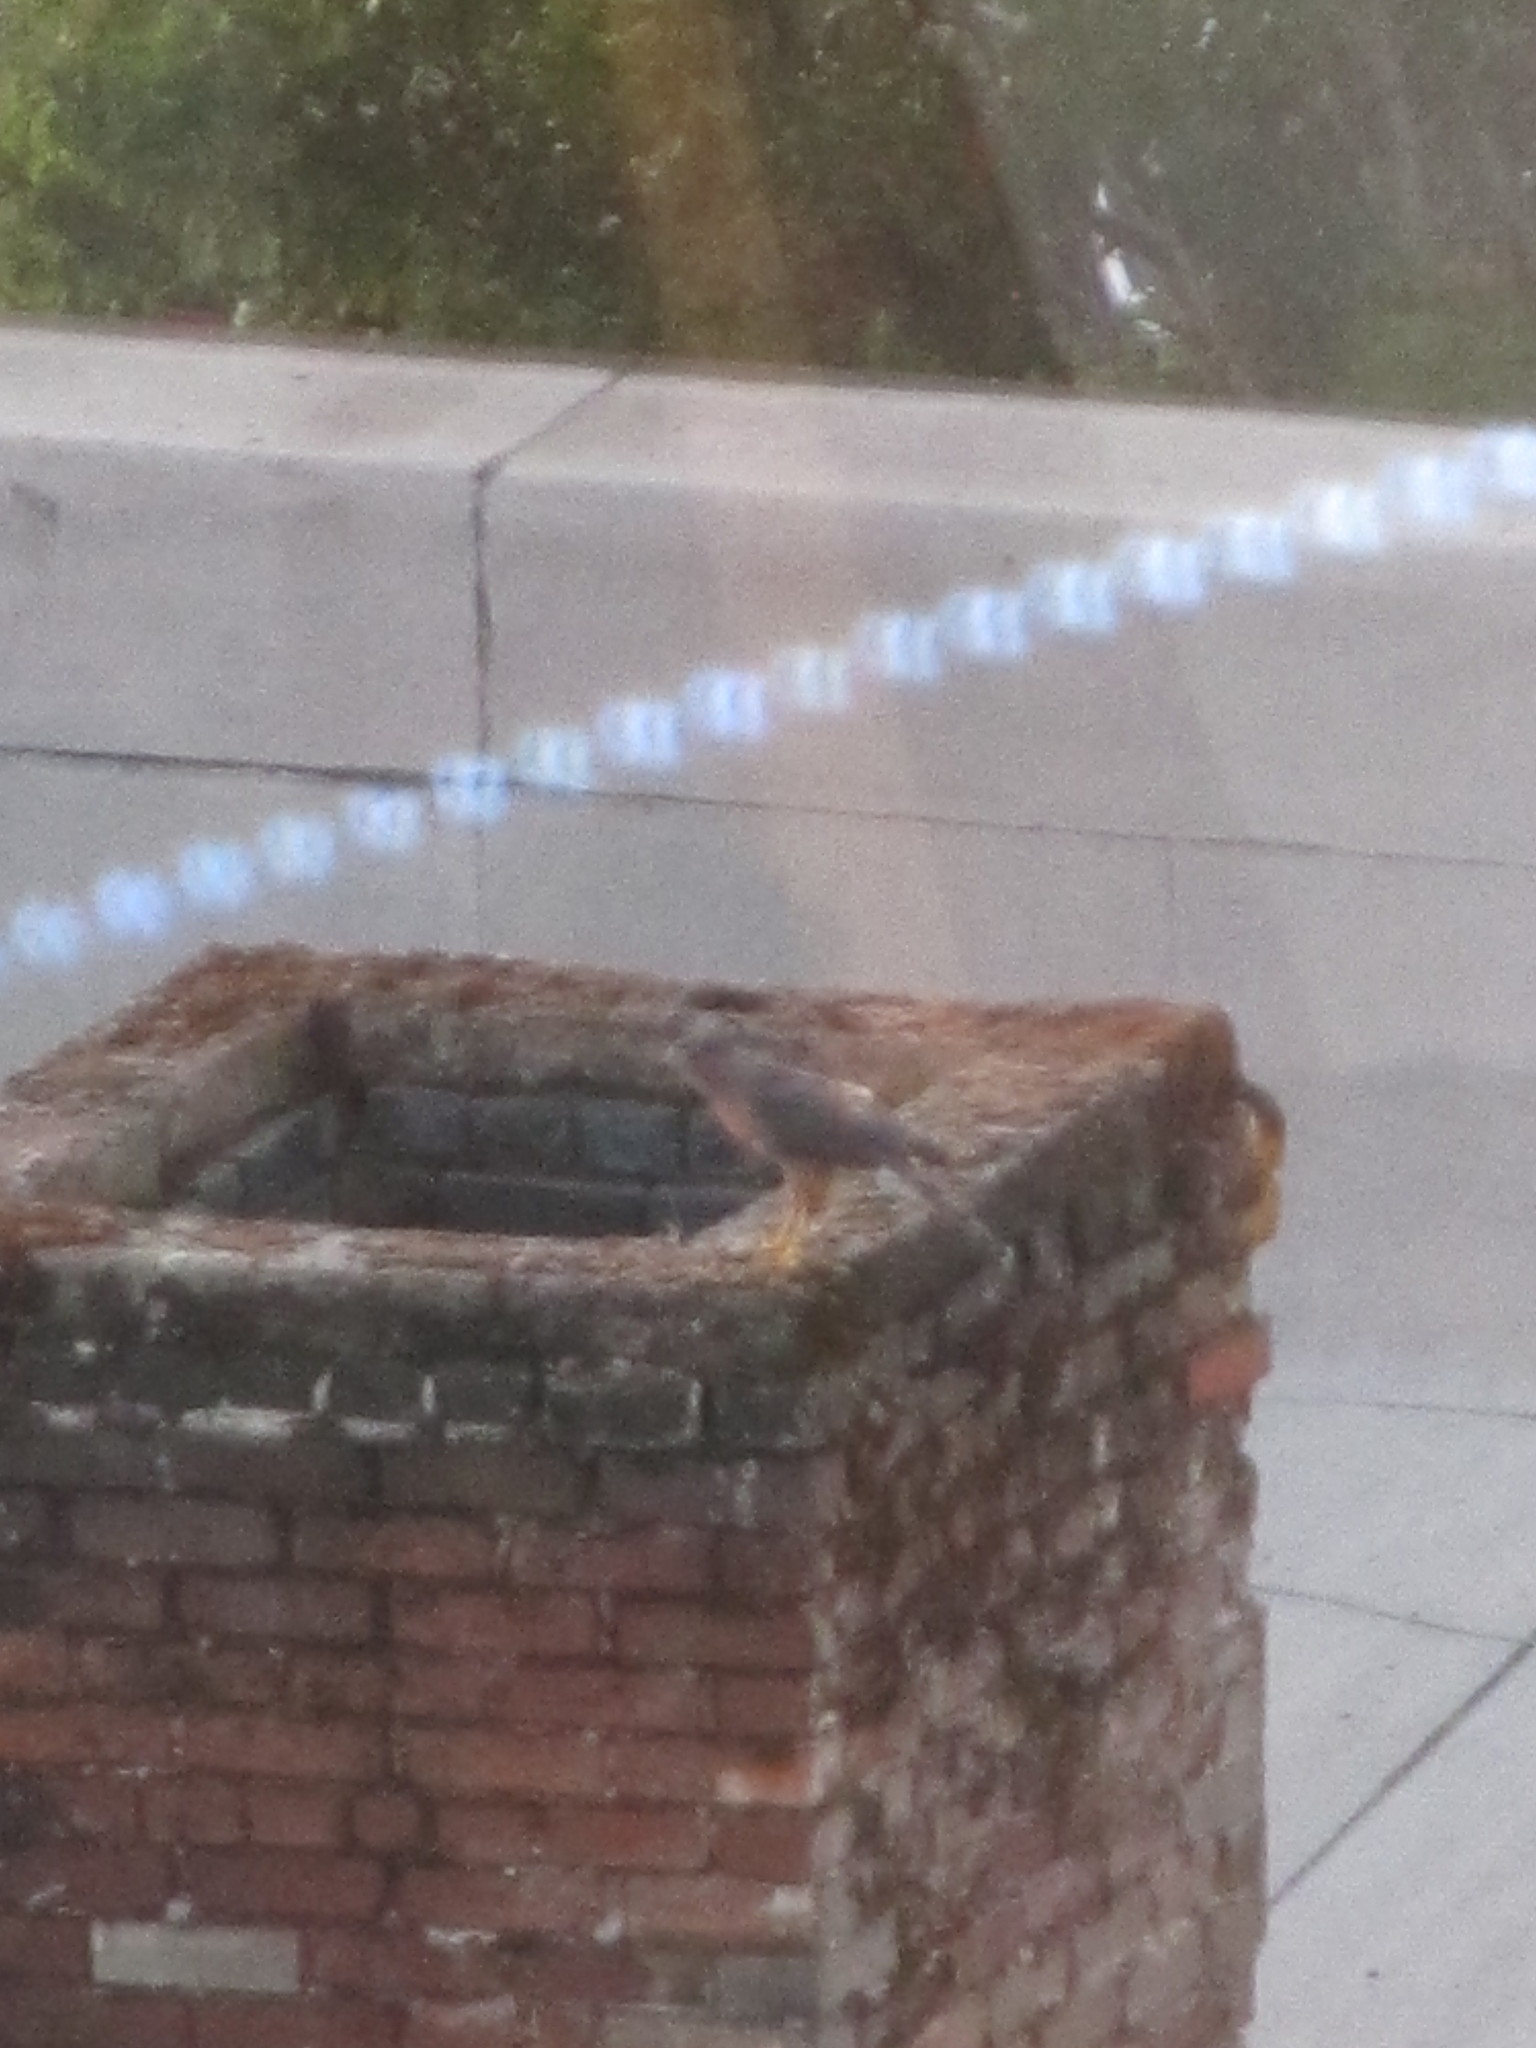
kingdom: Animalia
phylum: Chordata
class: Aves
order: Accipitriformes
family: Accipitridae
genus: Accipiter
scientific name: Accipiter cooperii
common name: Cooper's hawk
